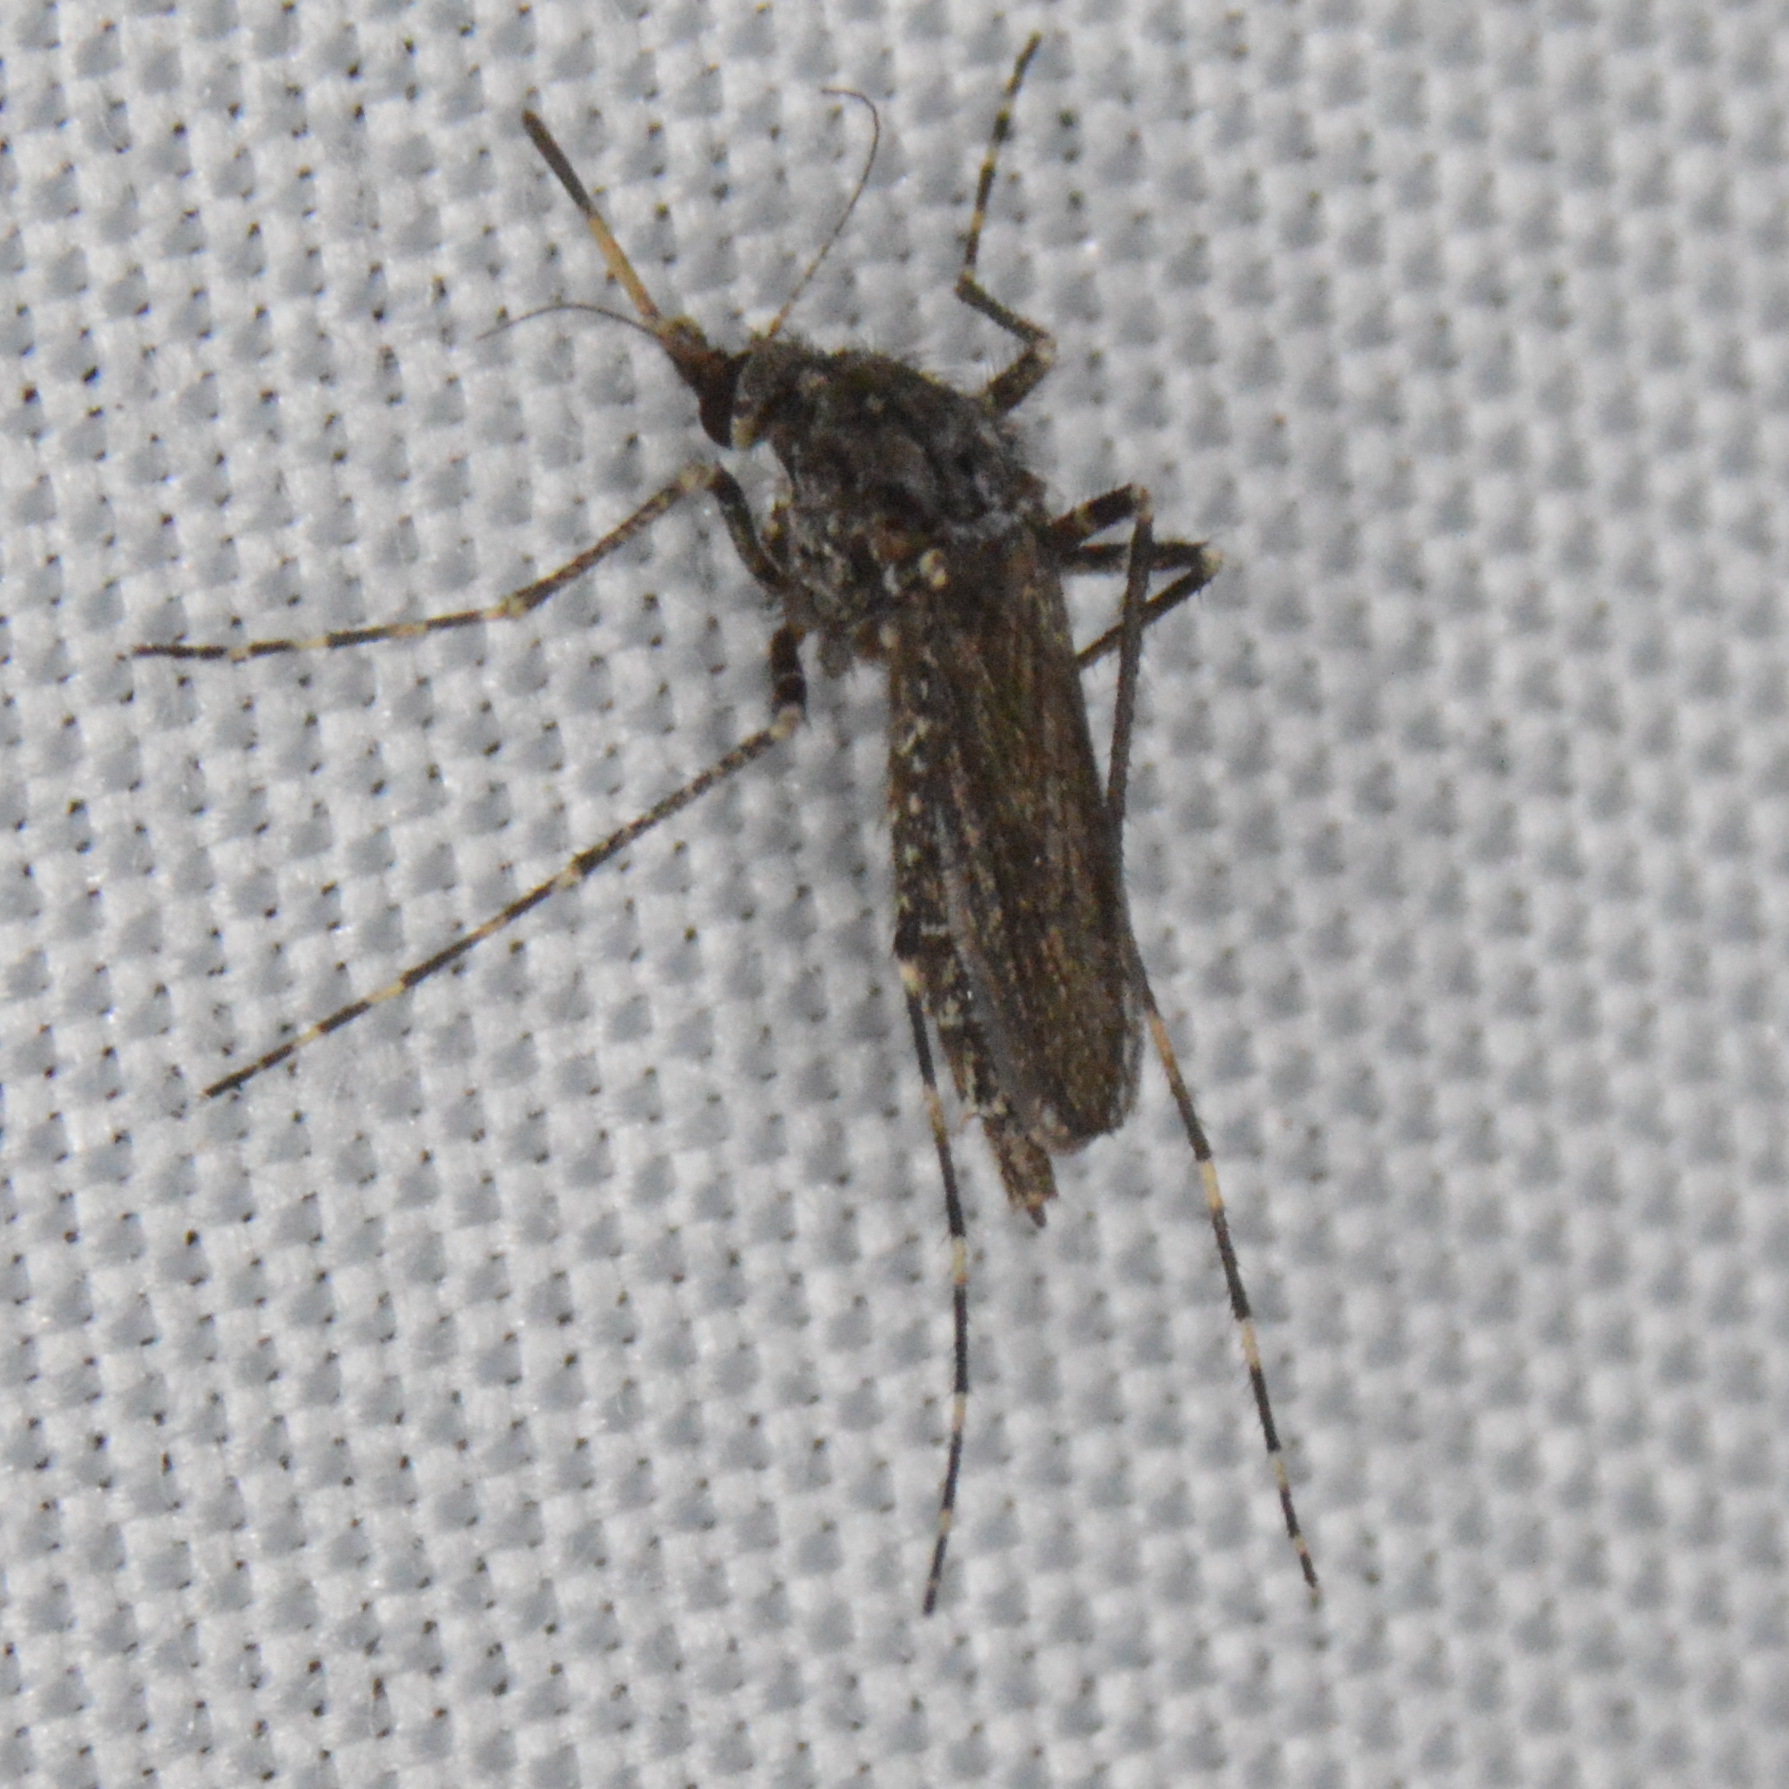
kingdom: Animalia
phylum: Arthropoda
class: Insecta
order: Diptera
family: Culicidae
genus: Psorophora
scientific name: Psorophora columbiae
